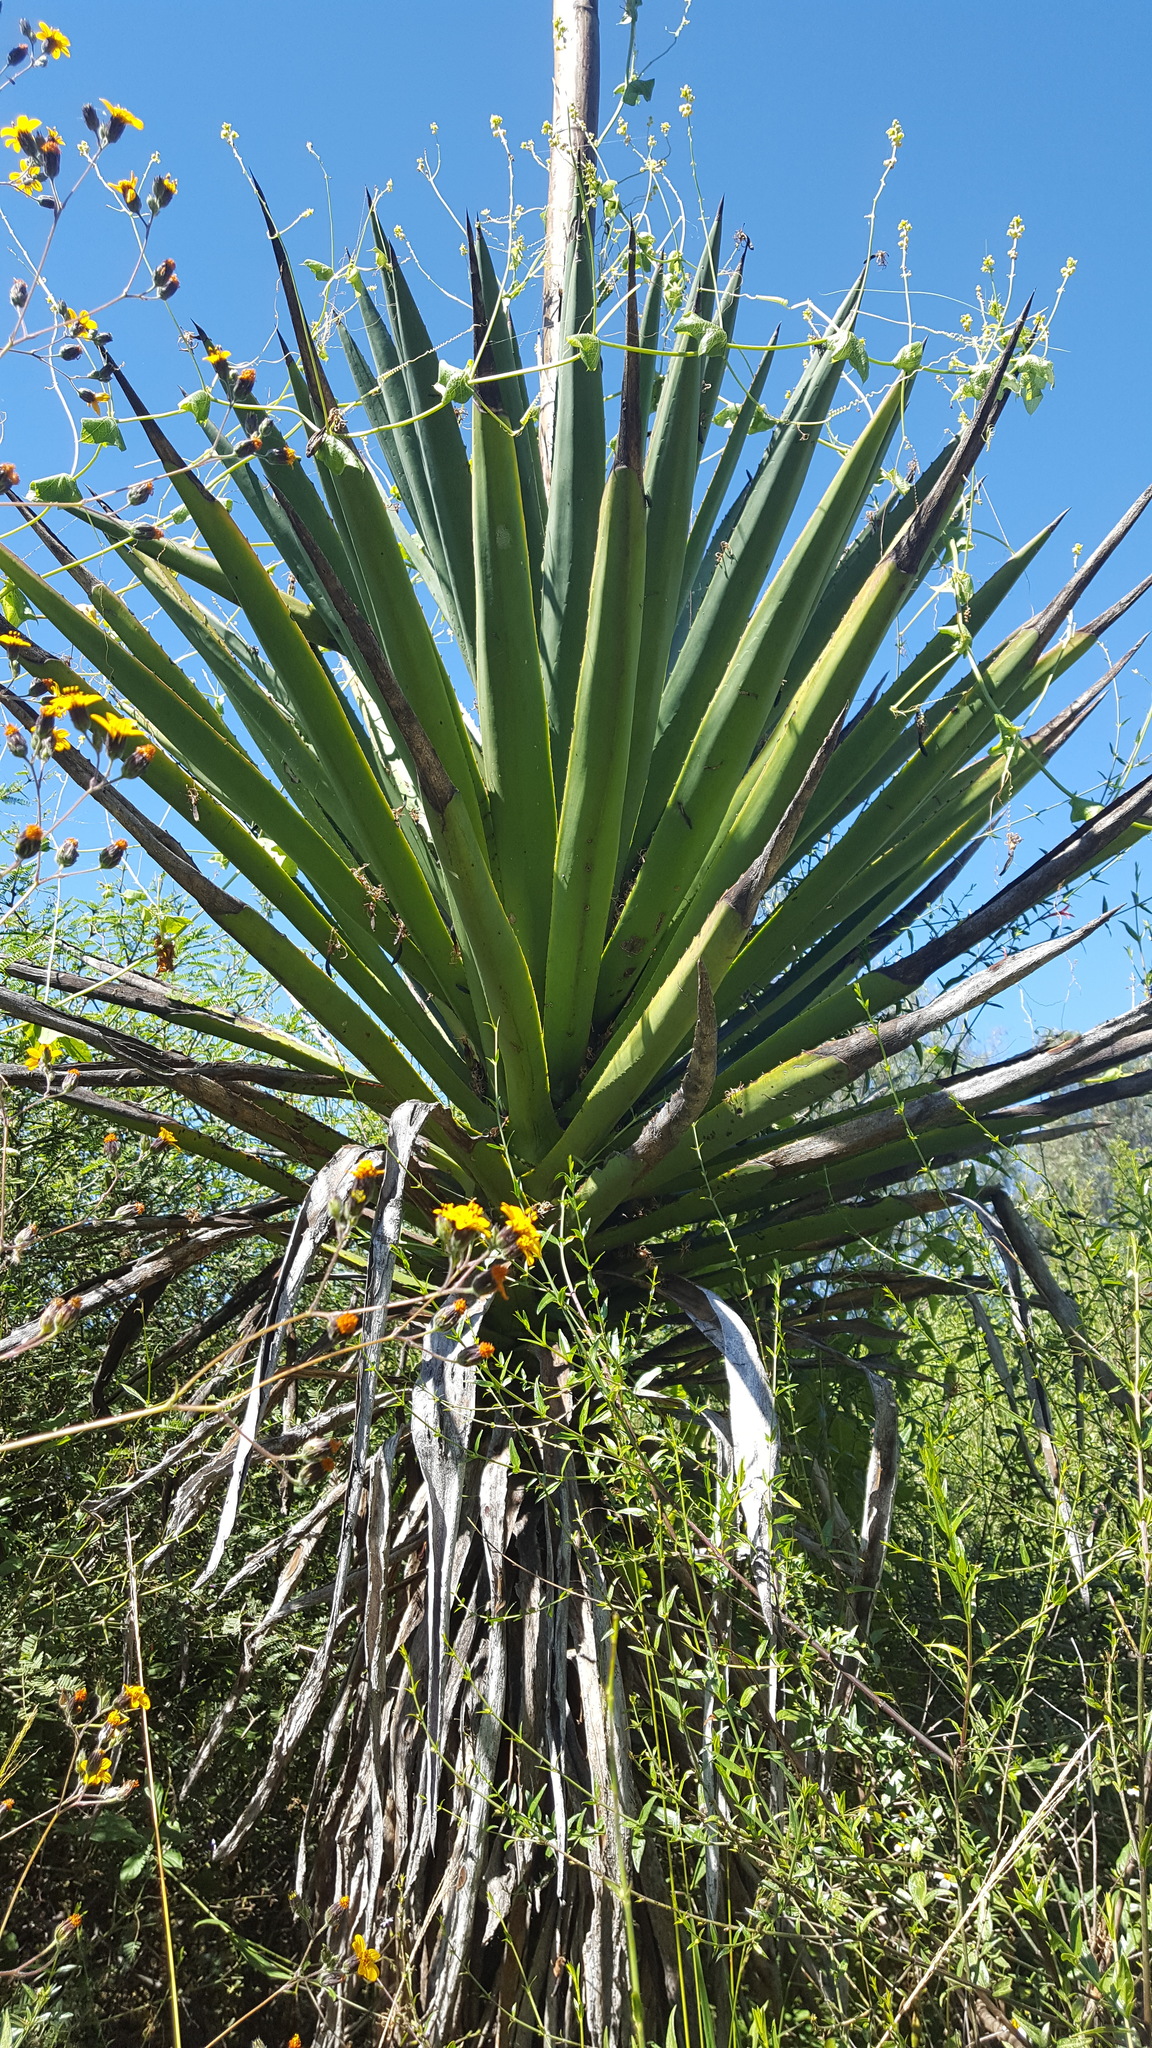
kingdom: Plantae
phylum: Tracheophyta
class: Liliopsida
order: Asparagales
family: Asparagaceae
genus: Agave
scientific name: Agave karwinskii
